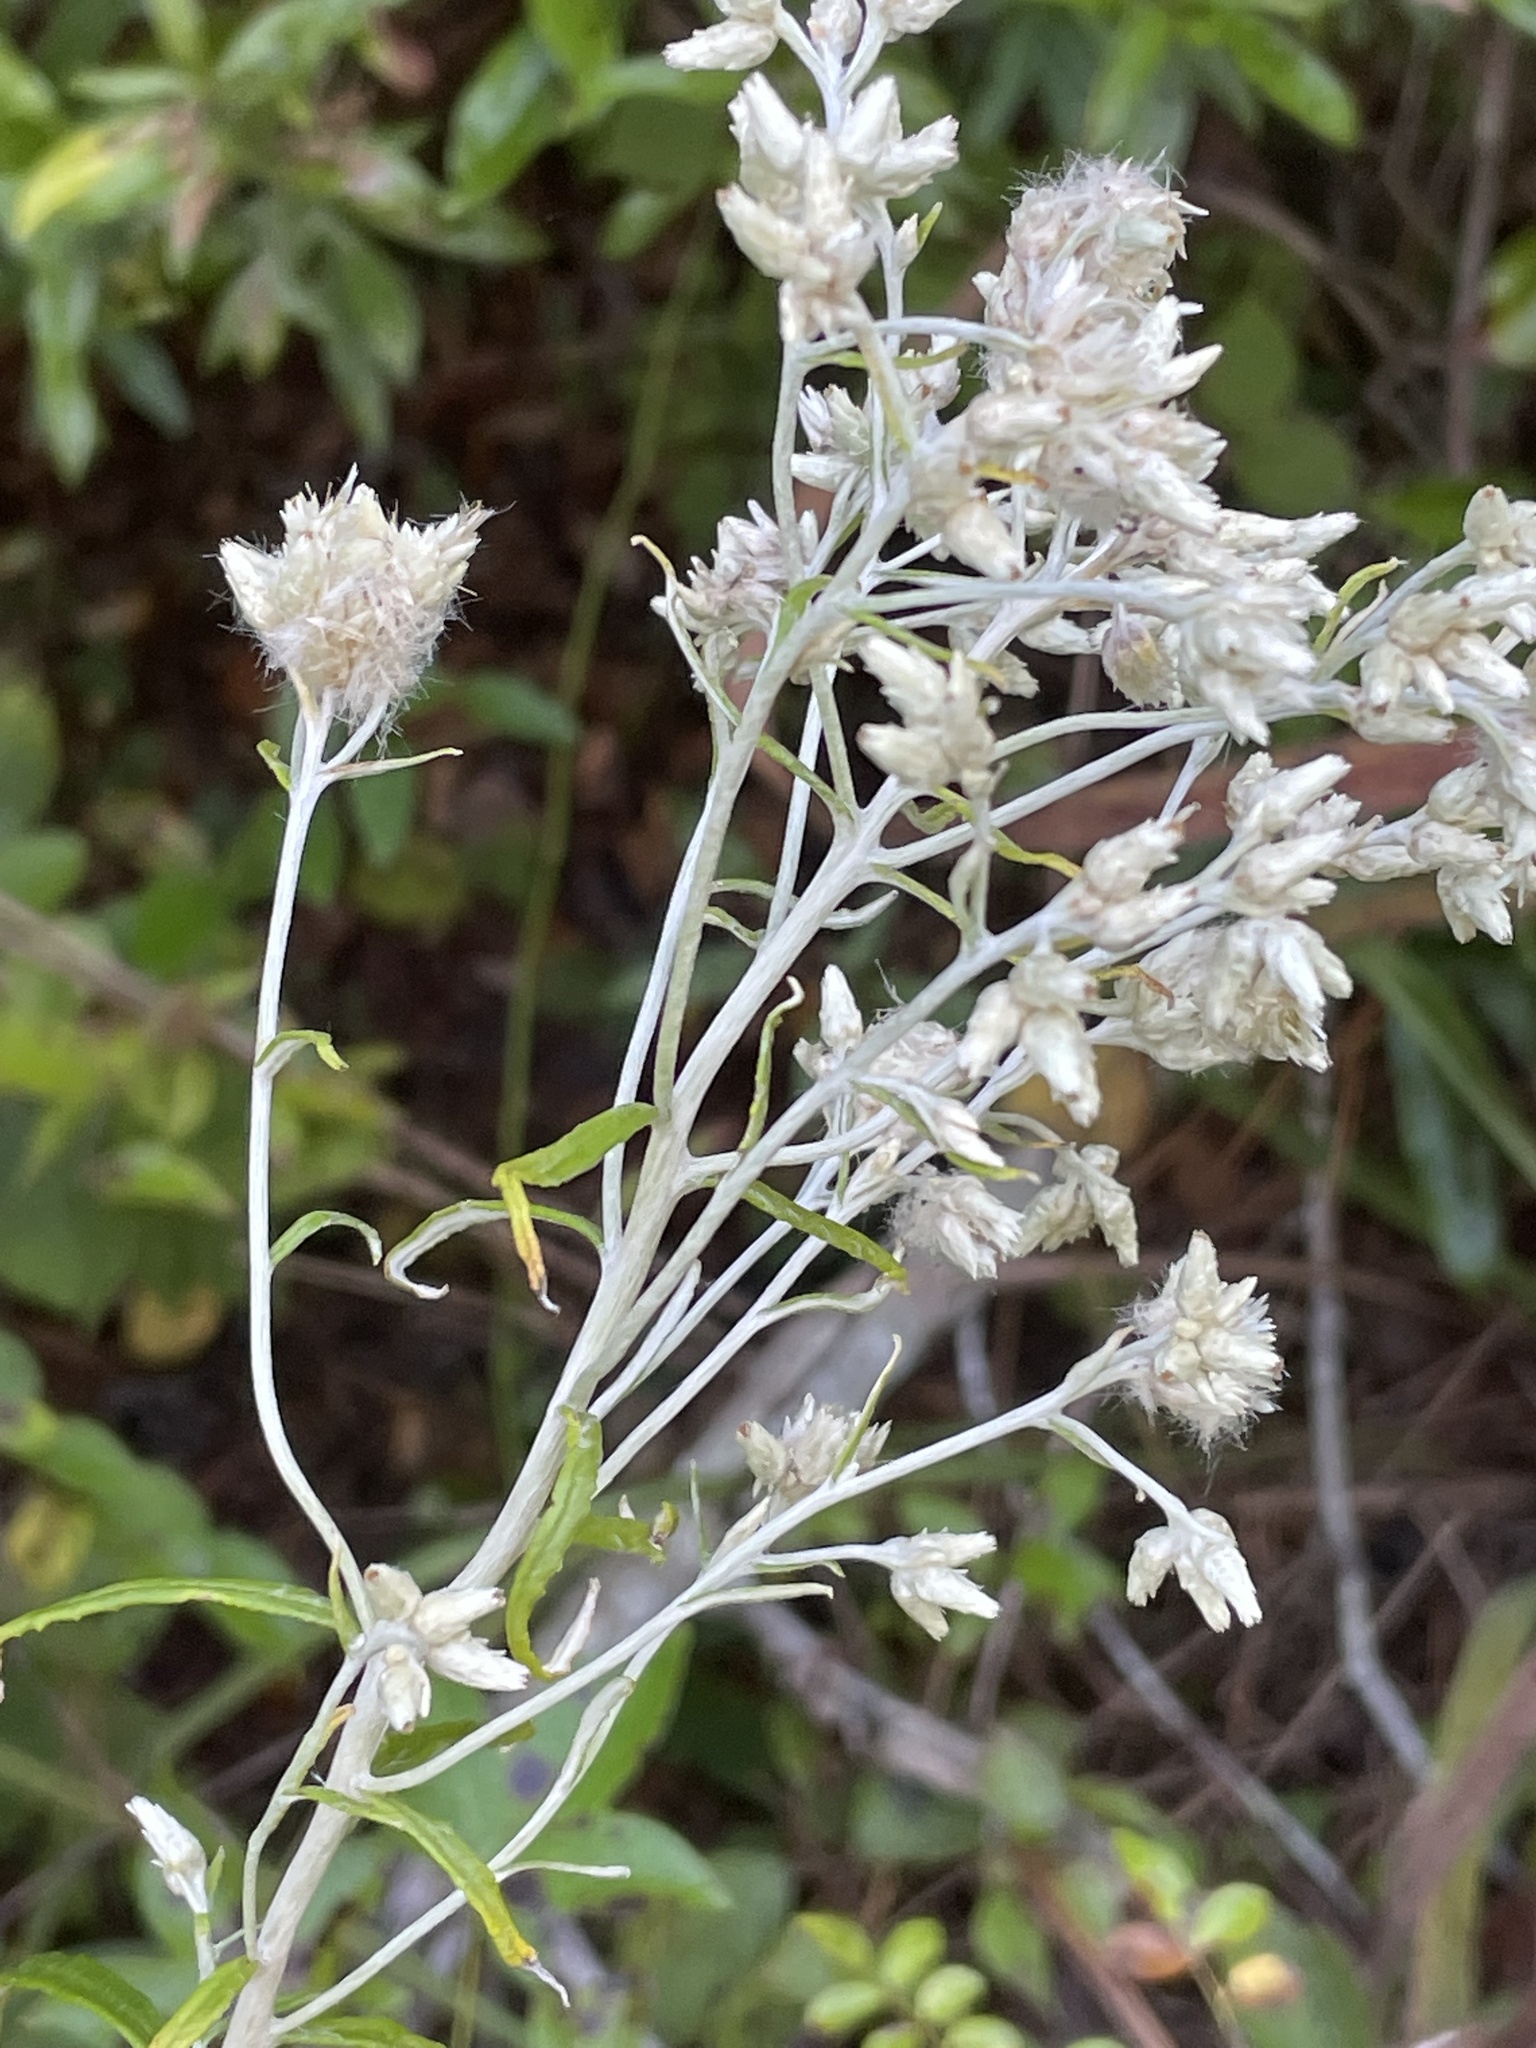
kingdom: Plantae
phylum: Tracheophyta
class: Magnoliopsida
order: Asterales
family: Asteraceae
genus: Pseudognaphalium
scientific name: Pseudognaphalium obtusifolium
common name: Eastern rabbit-tobacco
